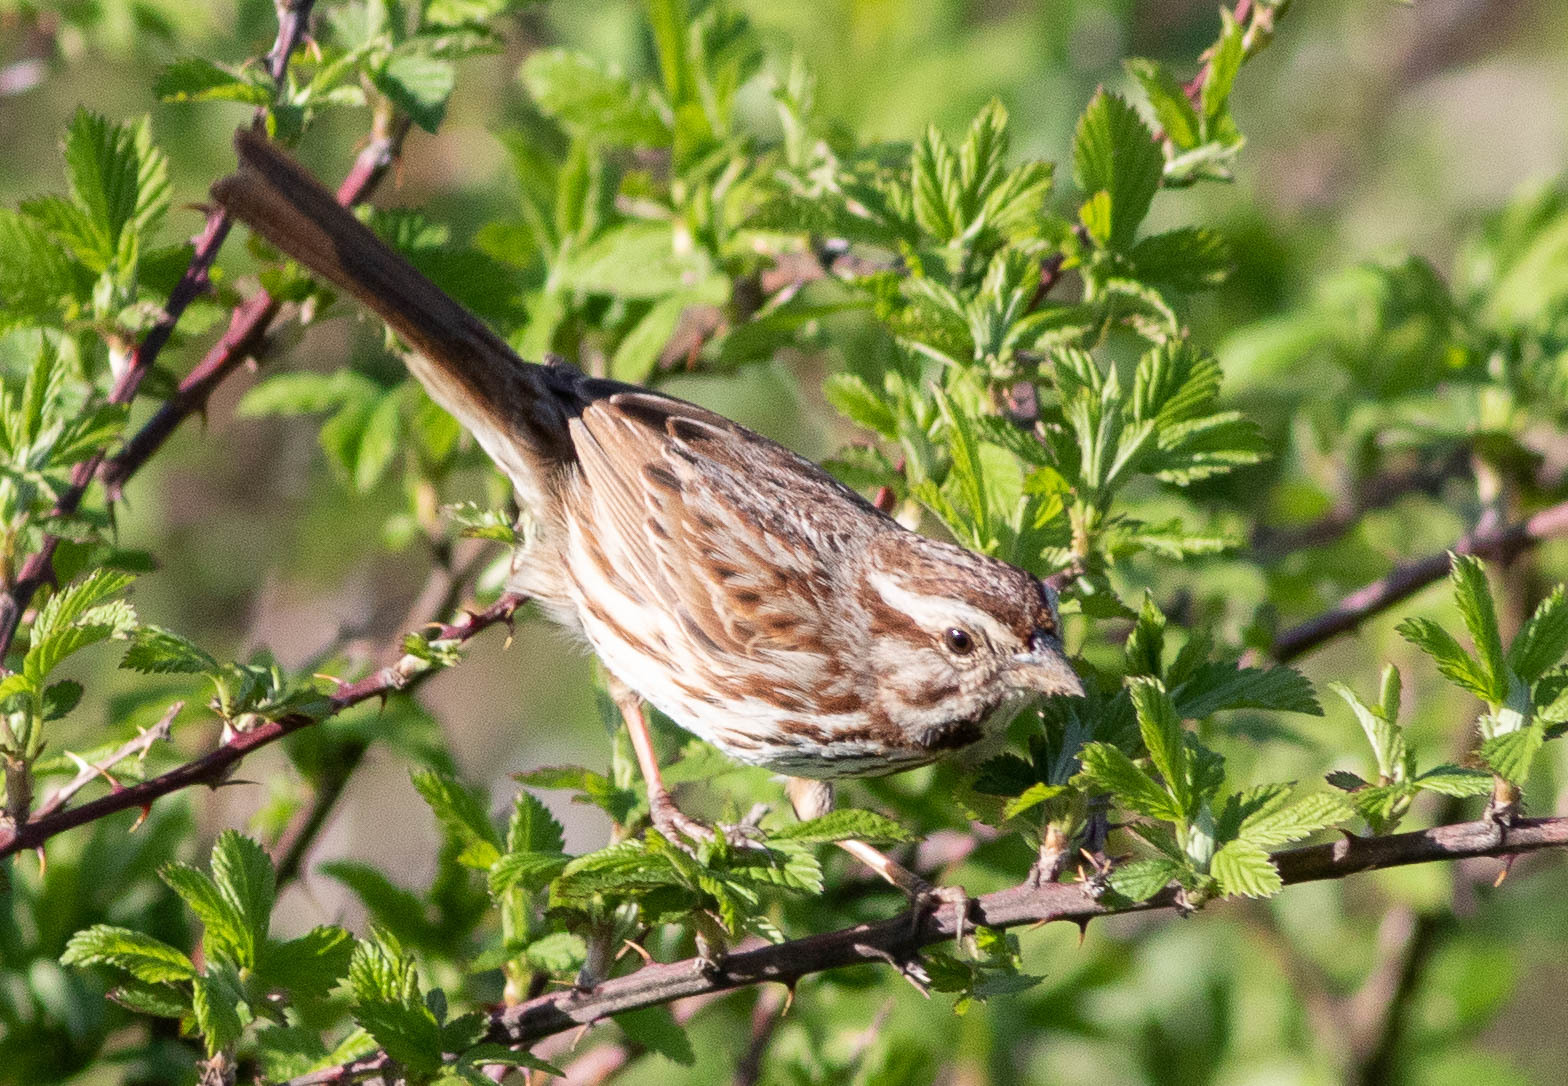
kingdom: Animalia
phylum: Chordata
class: Aves
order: Passeriformes
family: Passerellidae
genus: Melospiza
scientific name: Melospiza melodia
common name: Song sparrow
